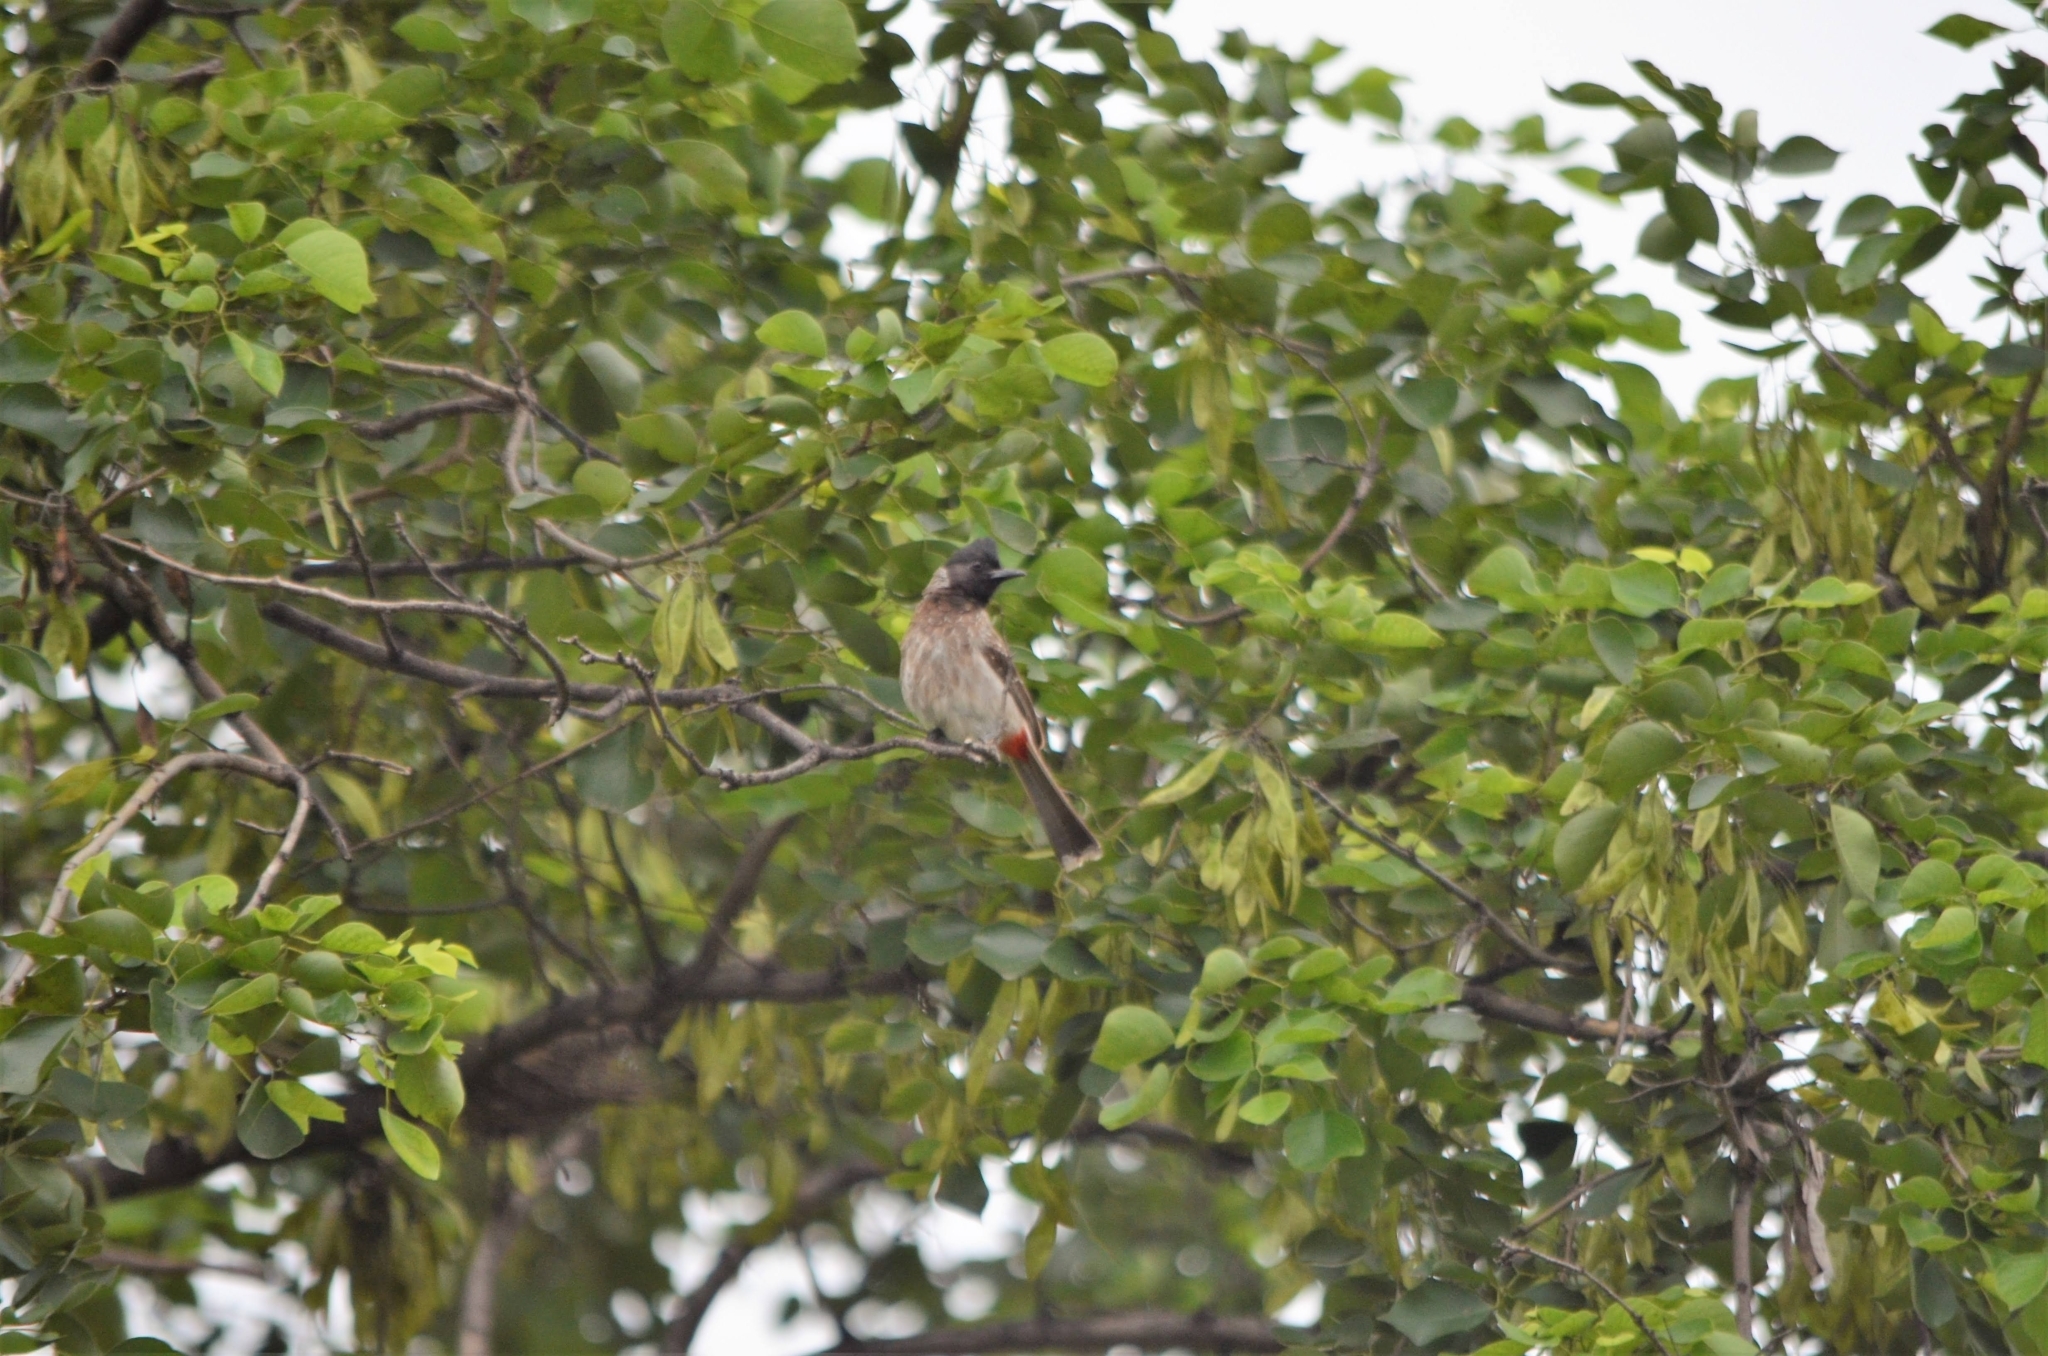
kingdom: Animalia
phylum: Chordata
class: Aves
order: Passeriformes
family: Pycnonotidae
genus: Pycnonotus
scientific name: Pycnonotus cafer
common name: Red-vented bulbul
